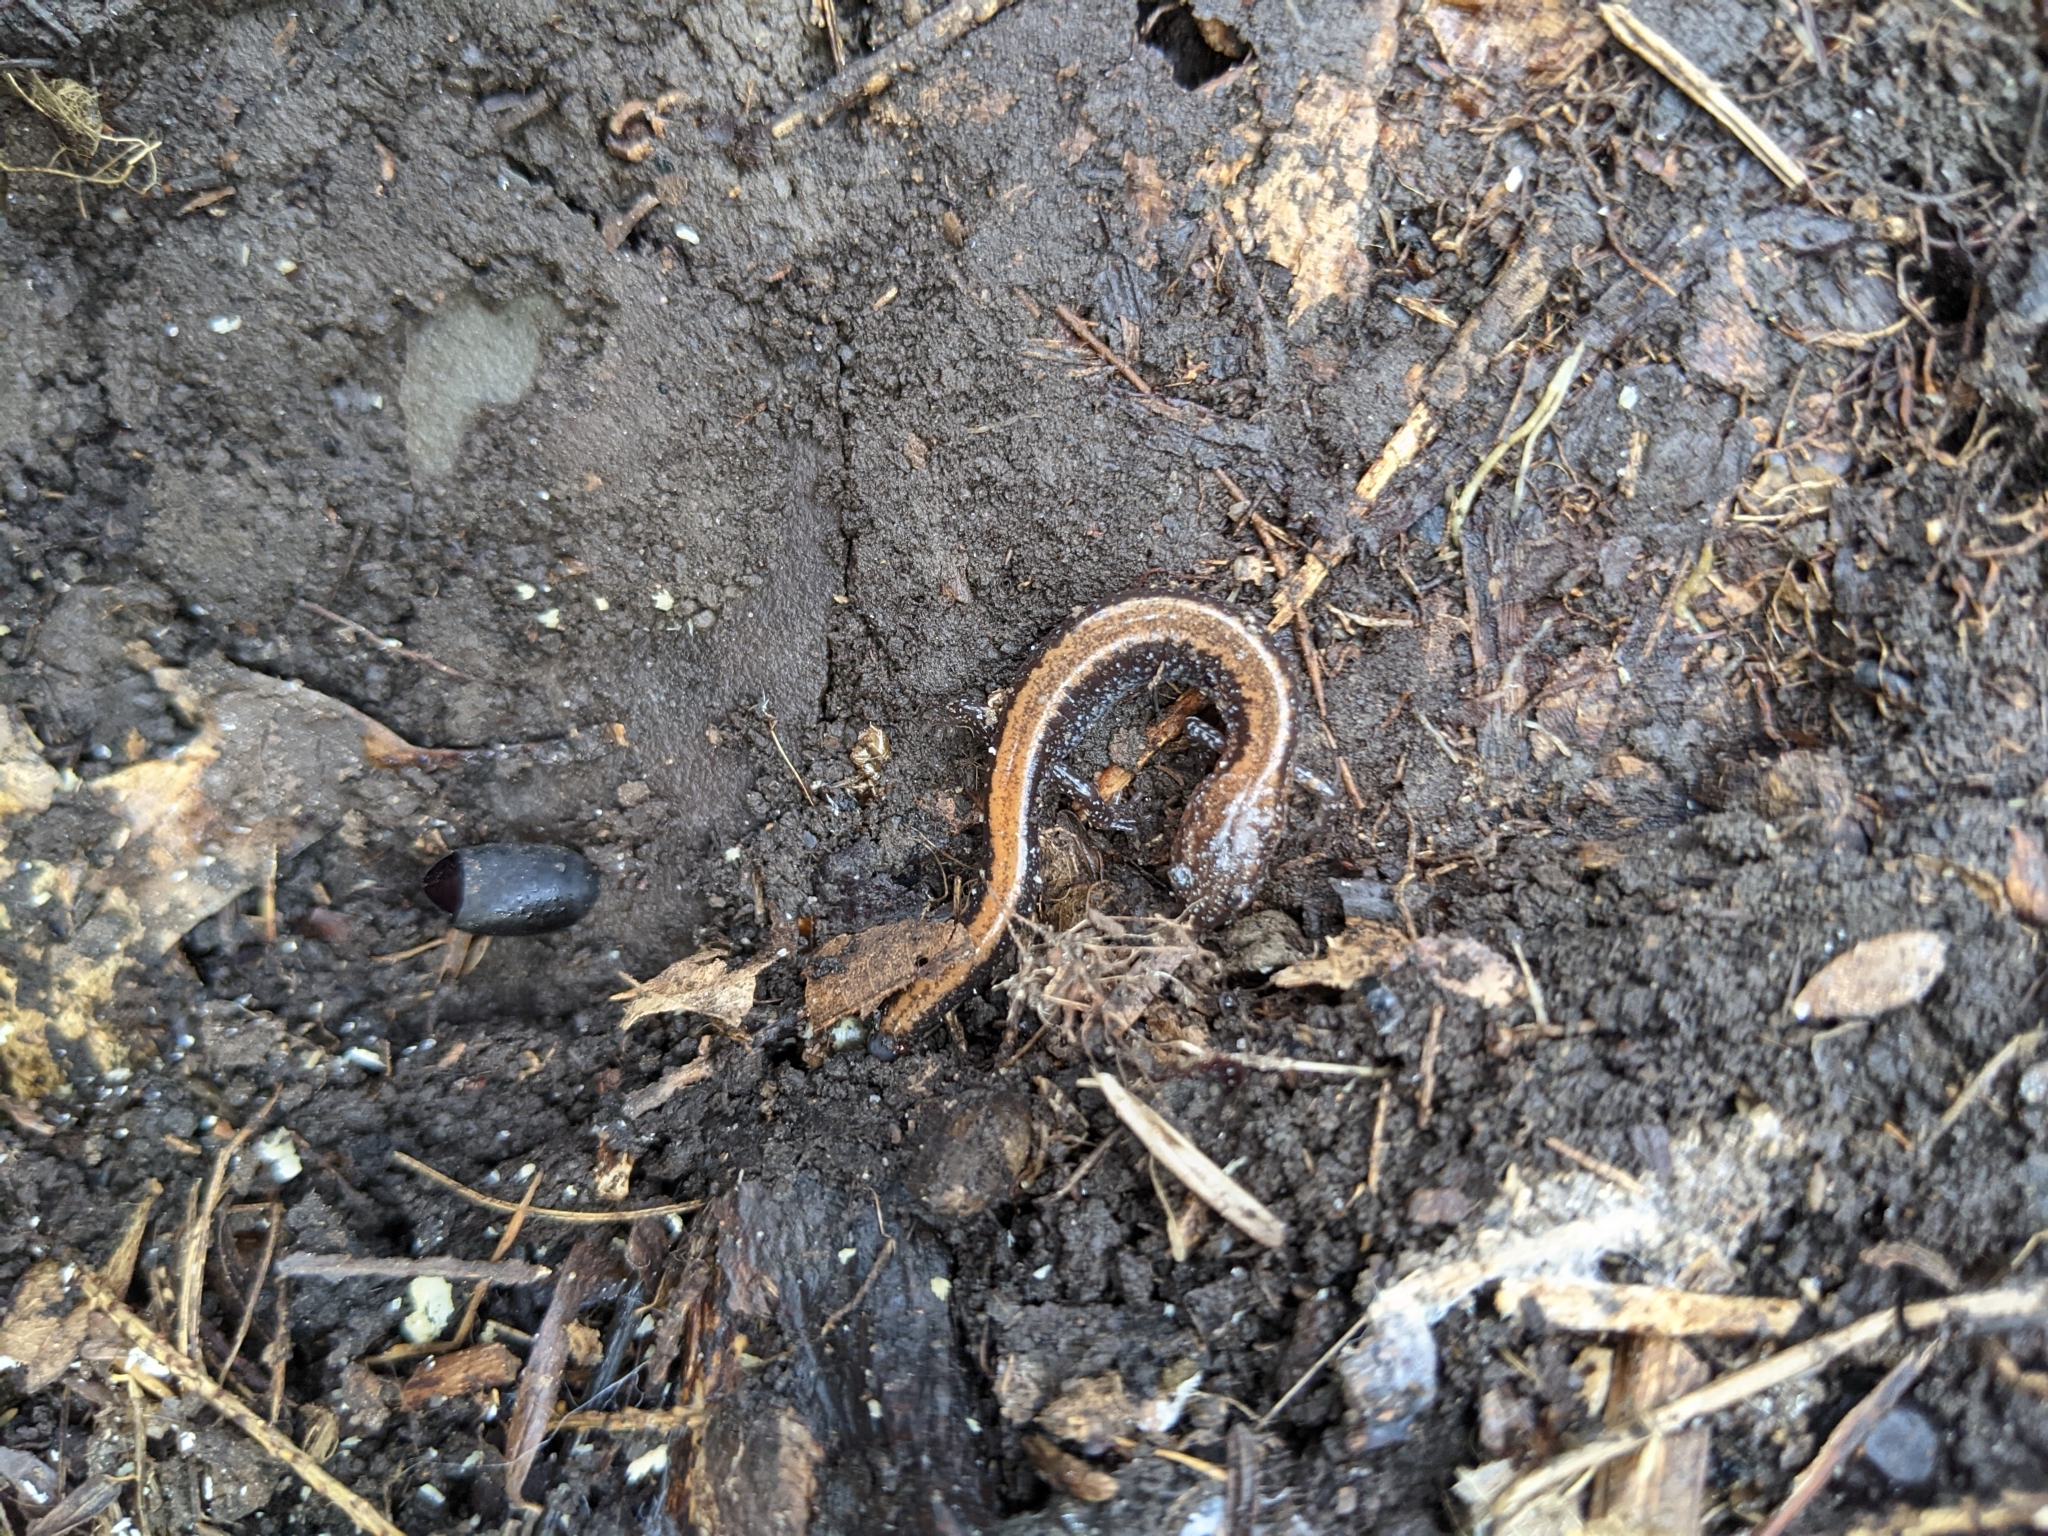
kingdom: Animalia
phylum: Chordata
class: Amphibia
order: Caudata
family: Plethodontidae
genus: Plethodon
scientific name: Plethodon cinereus
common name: Redback salamander
